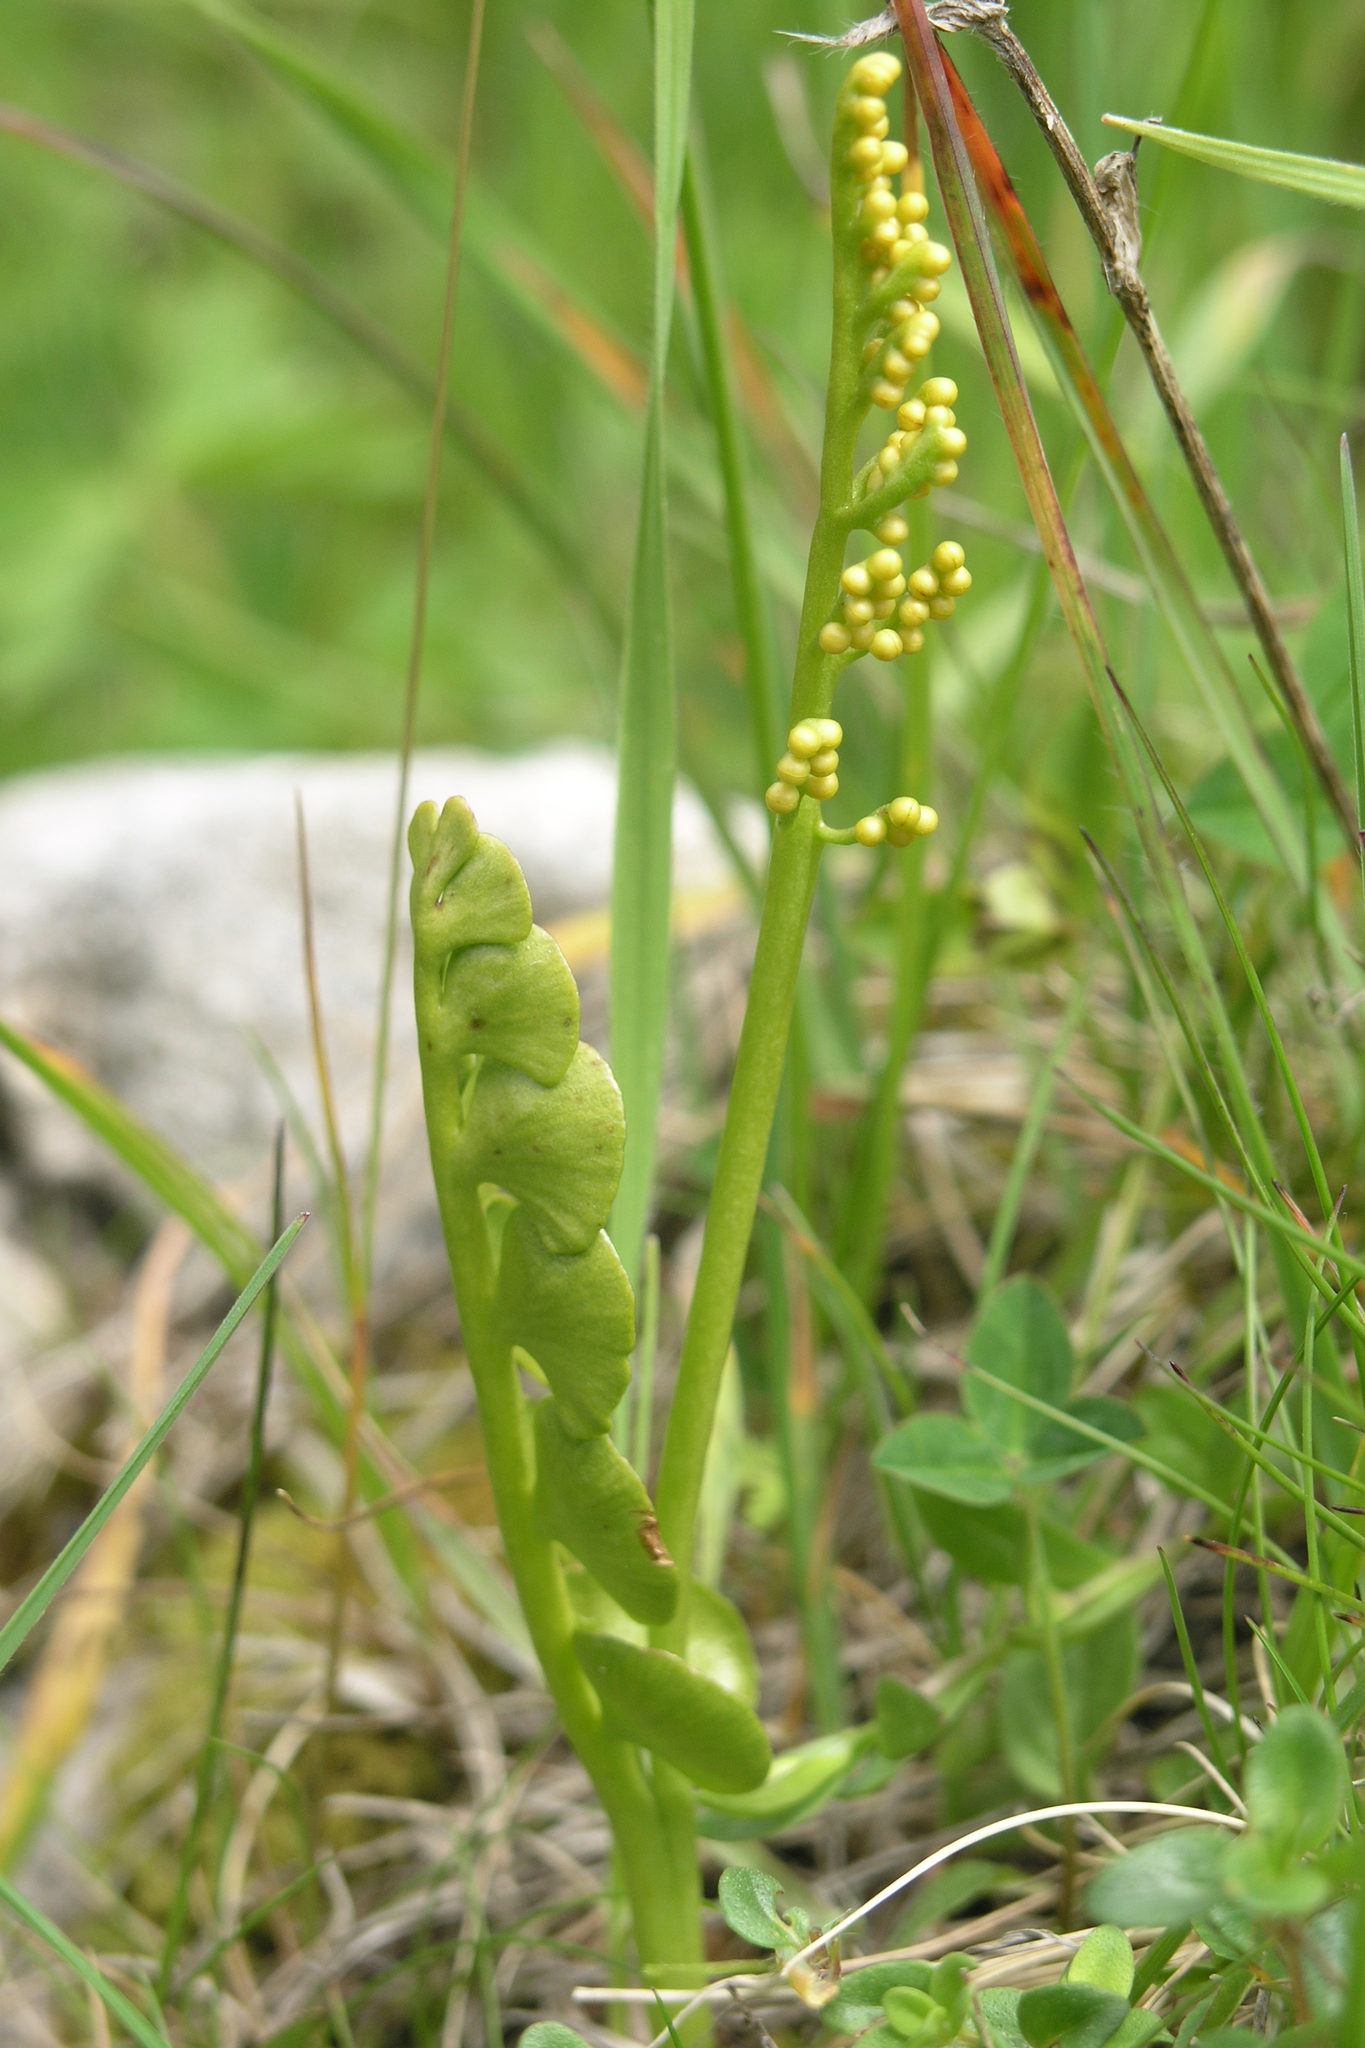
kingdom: Plantae
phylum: Tracheophyta
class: Polypodiopsida
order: Ophioglossales
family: Ophioglossaceae
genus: Botrychium
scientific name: Botrychium lunaria
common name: Moonwort
